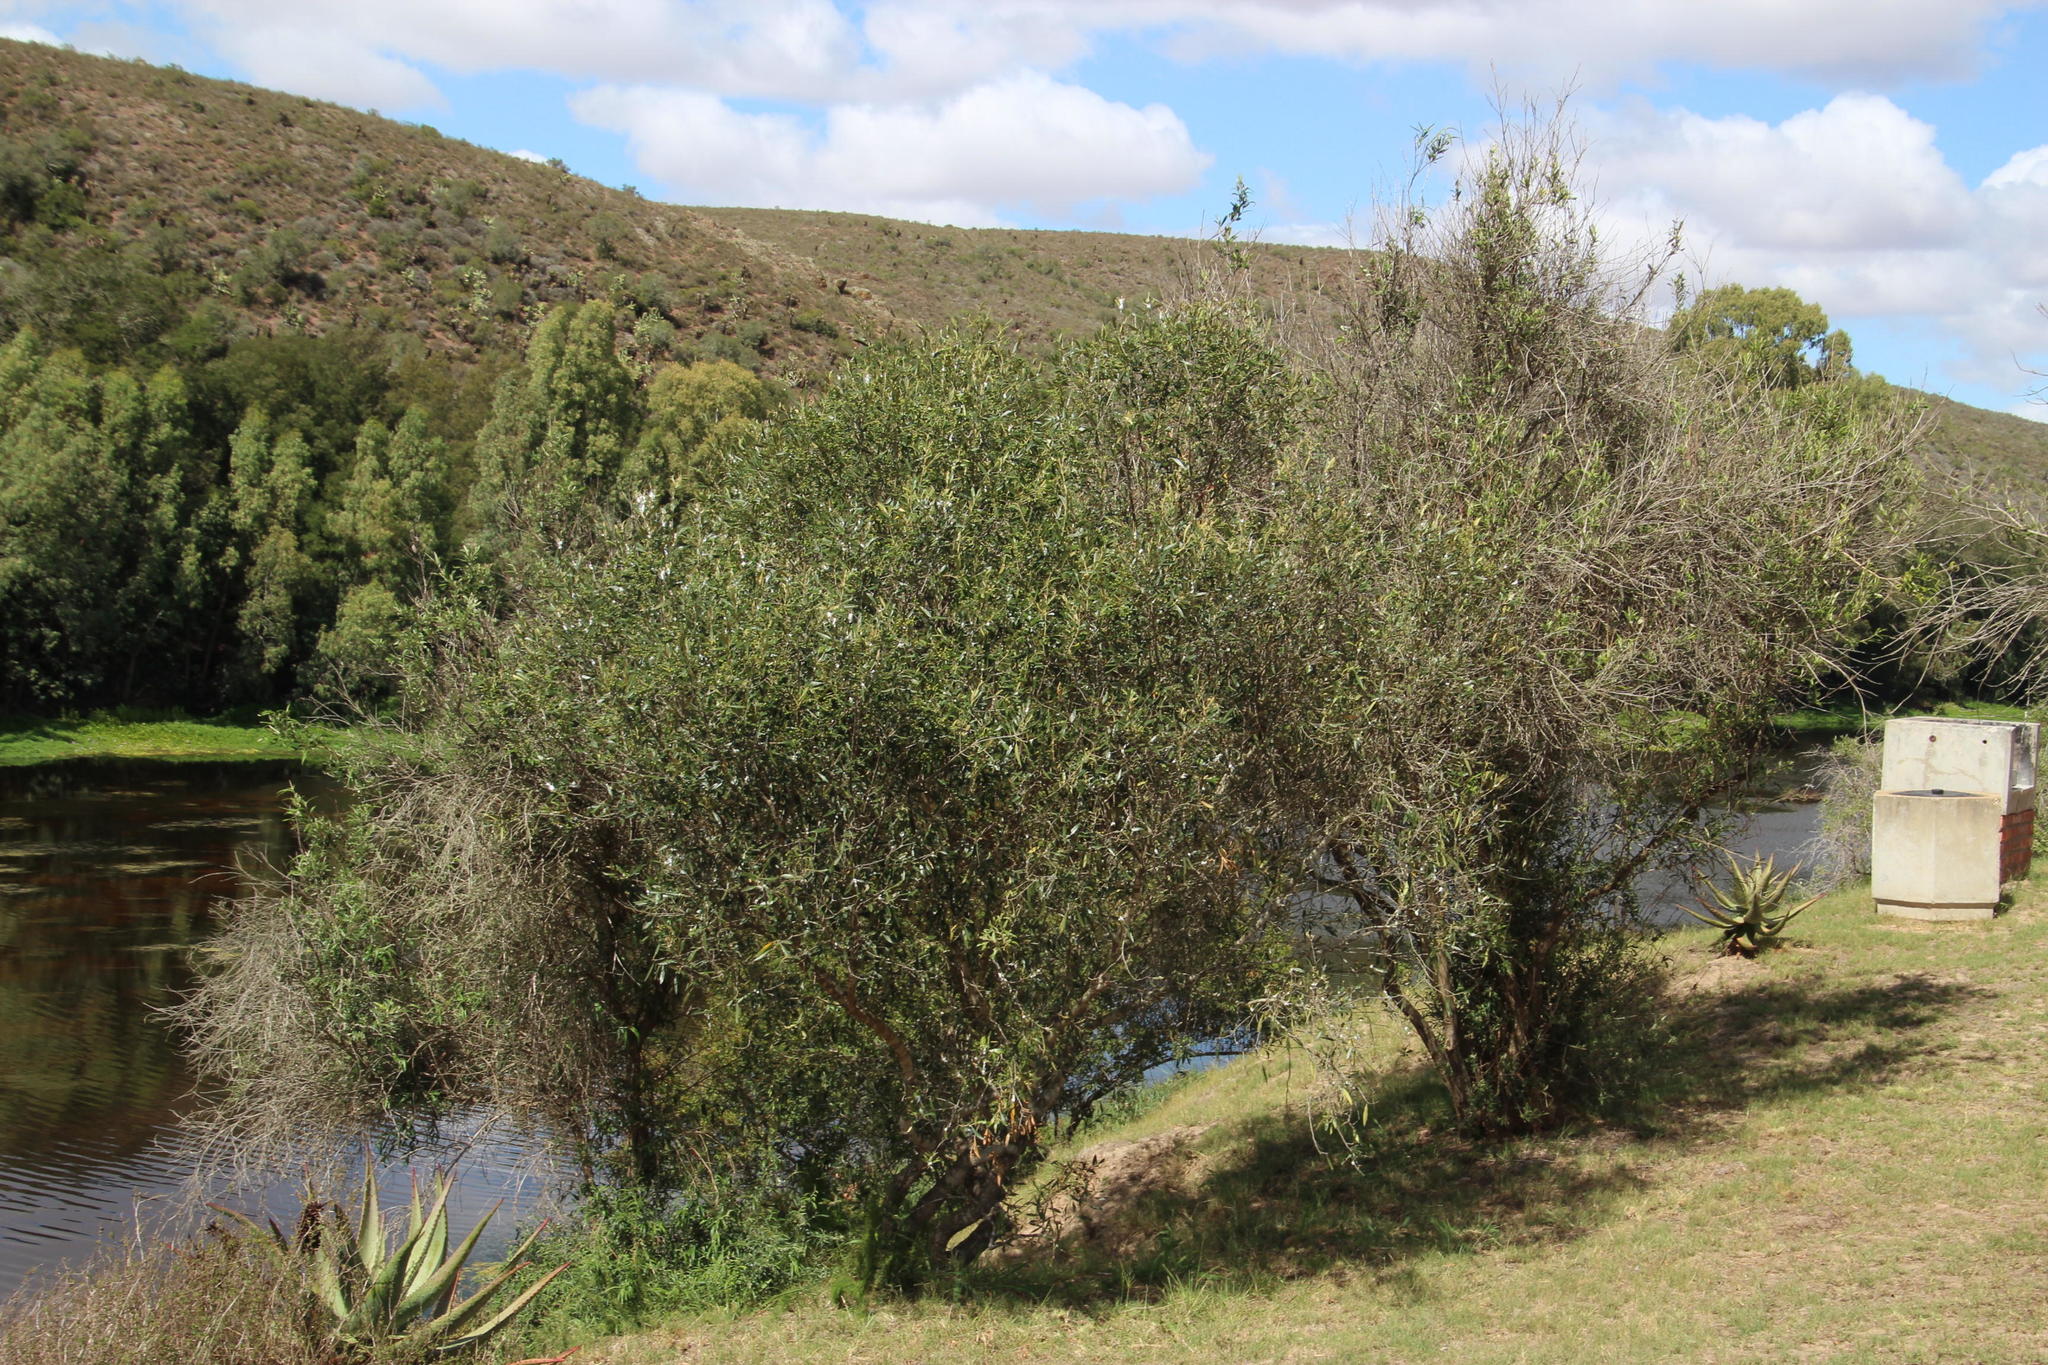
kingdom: Plantae
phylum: Tracheophyta
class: Magnoliopsida
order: Lamiales
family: Scrophulariaceae
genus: Buddleja
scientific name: Buddleja saligna
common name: False olive
